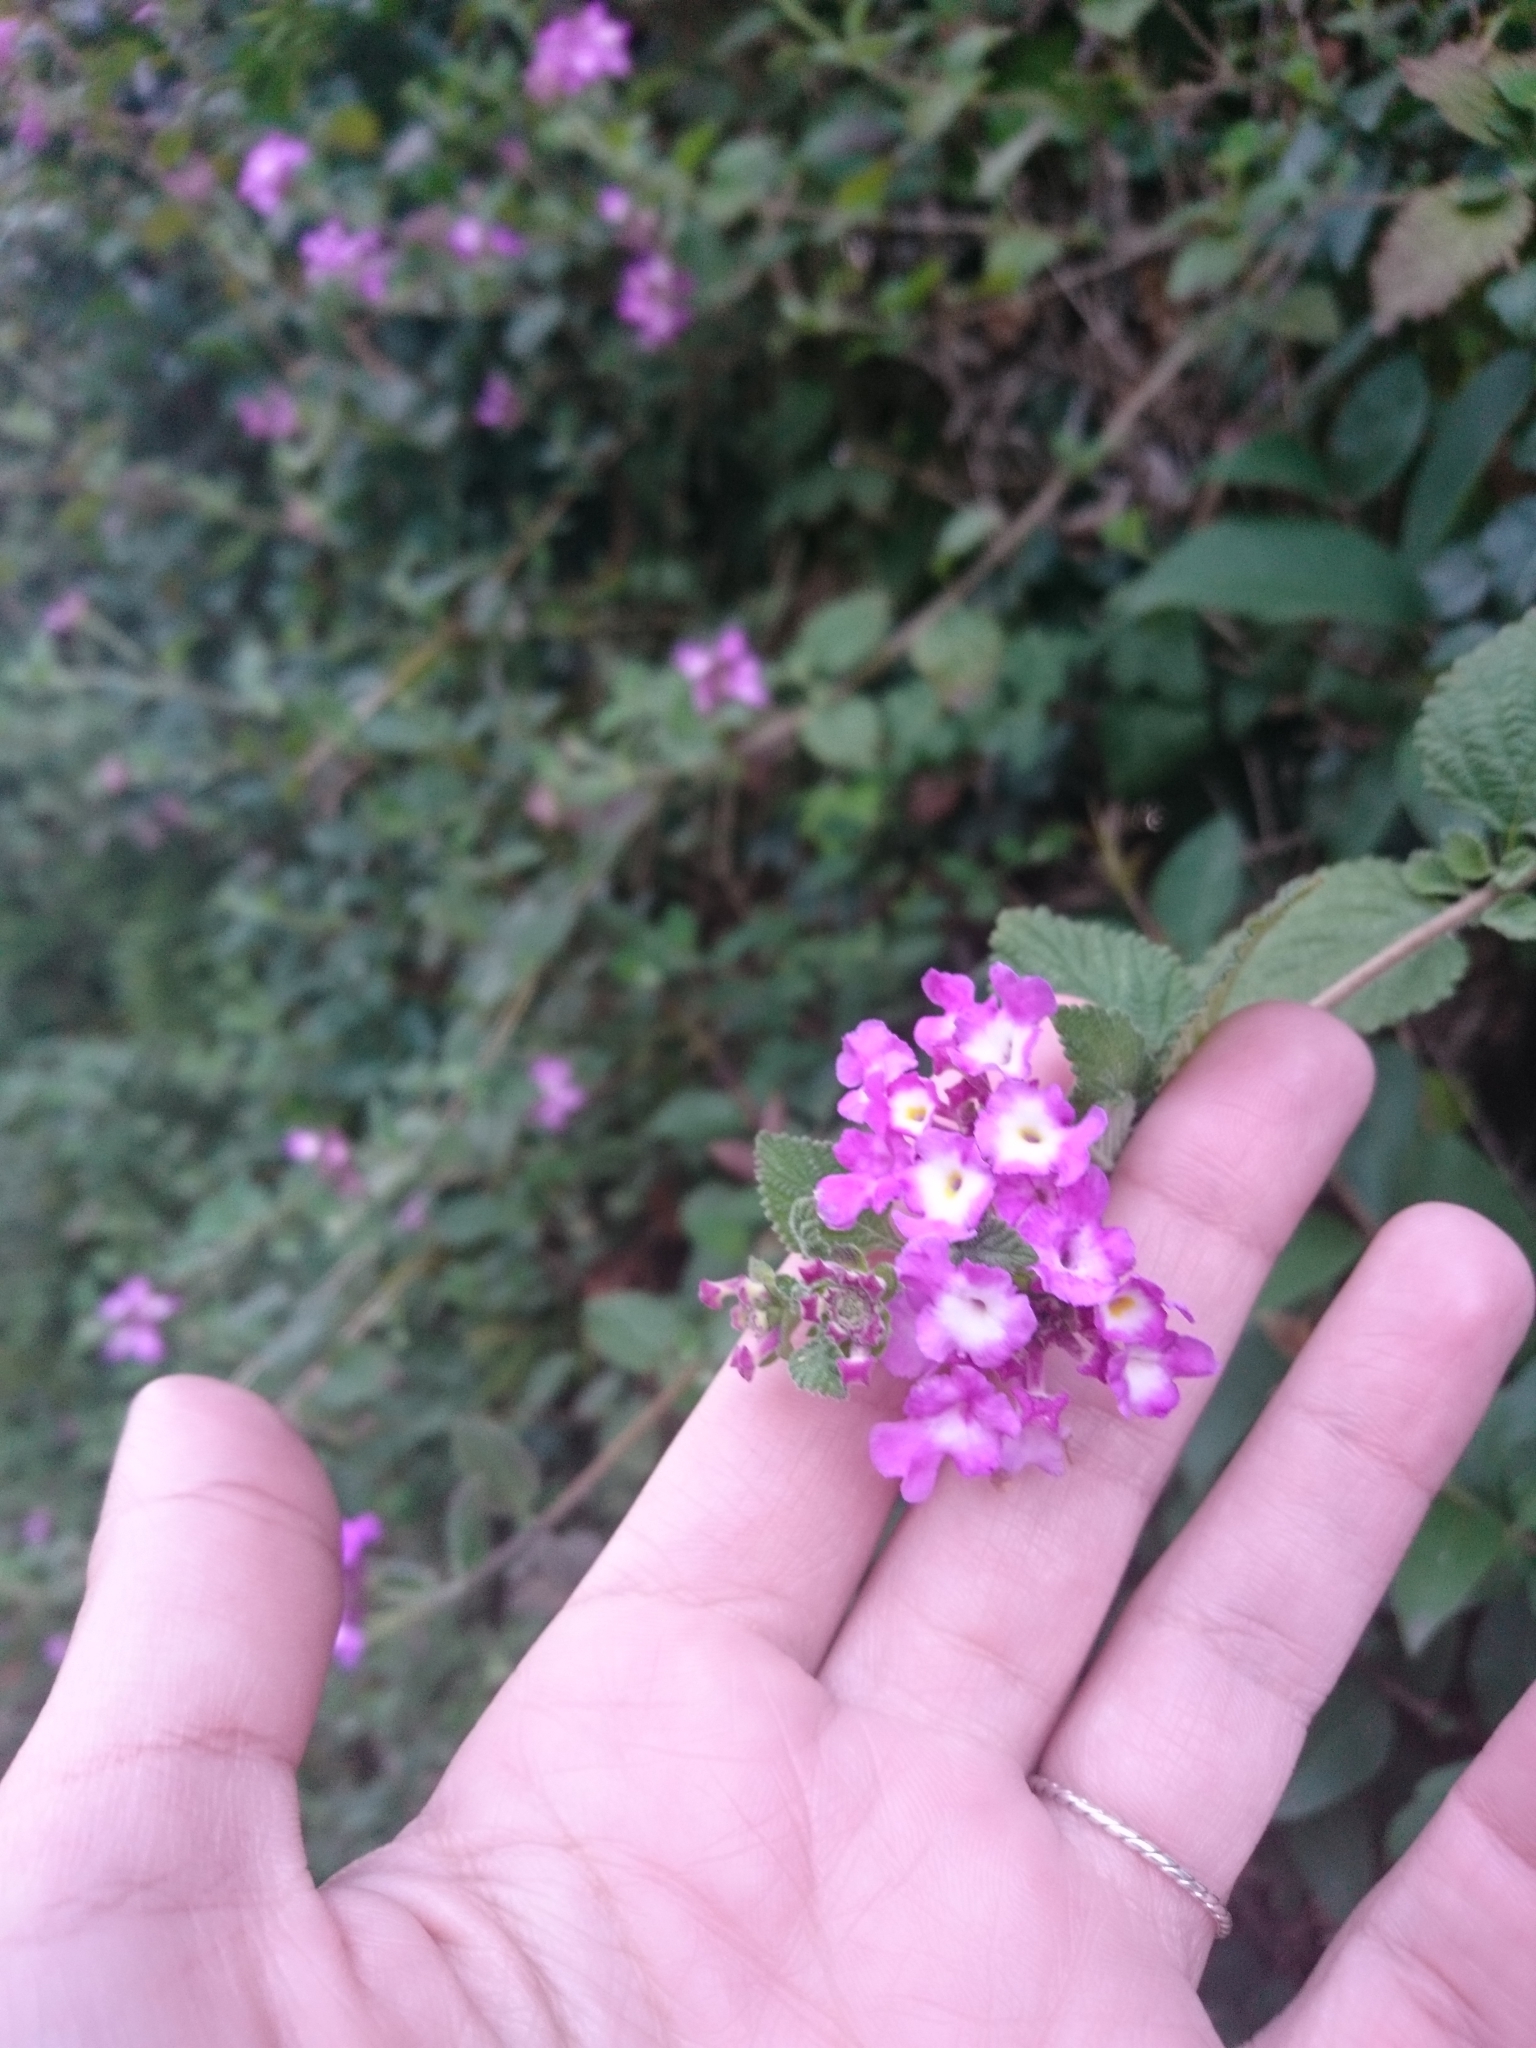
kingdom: Plantae
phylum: Tracheophyta
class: Magnoliopsida
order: Lamiales
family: Verbenaceae
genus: Lantana
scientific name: Lantana megapotamica
